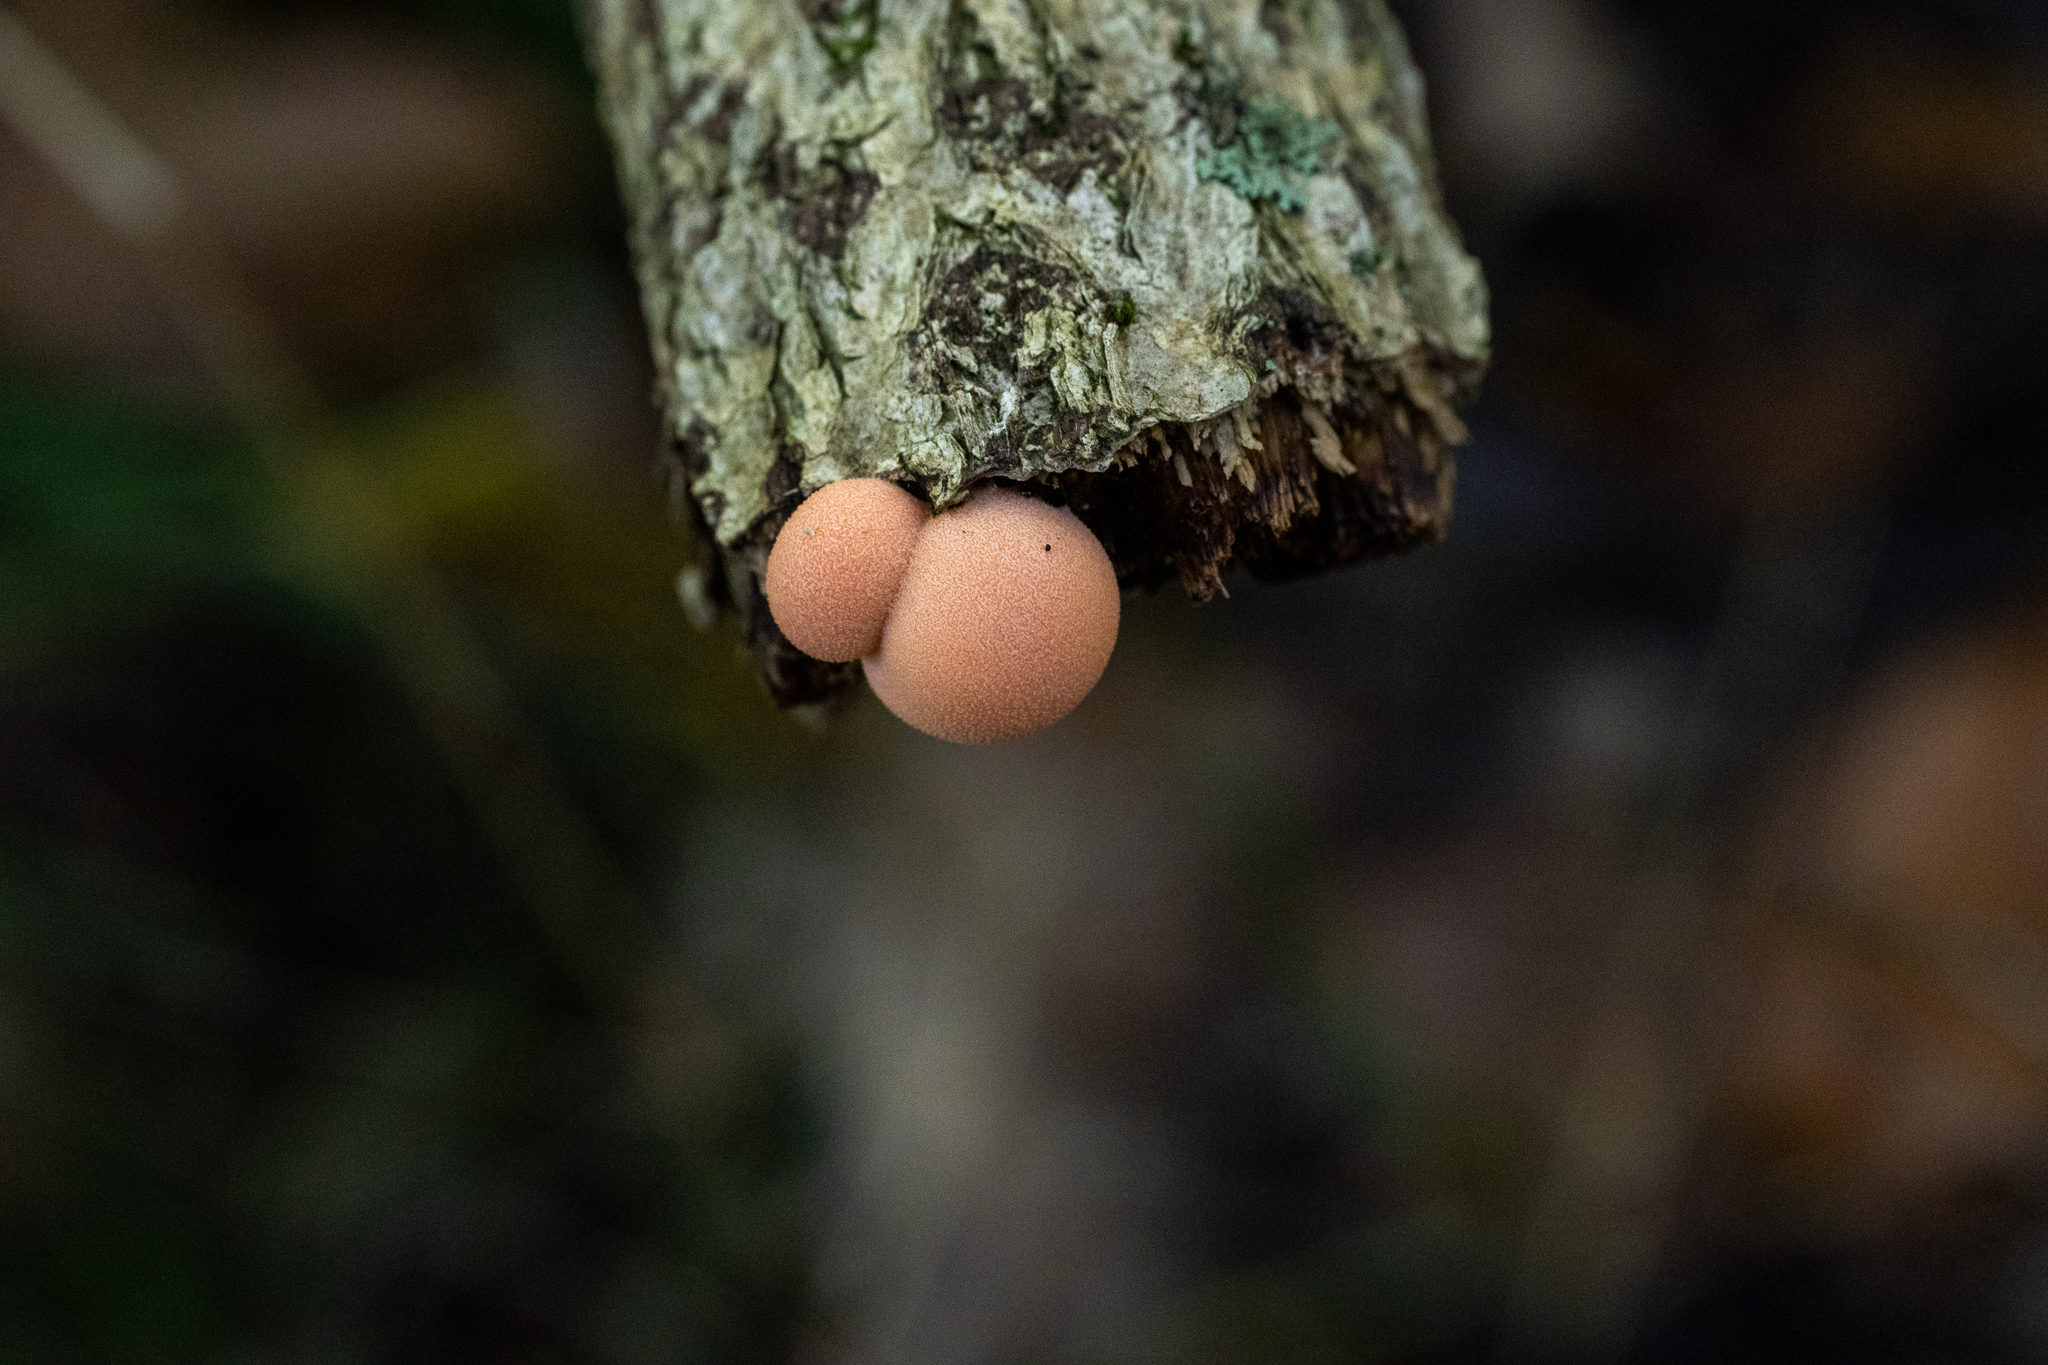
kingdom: Protozoa
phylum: Mycetozoa
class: Myxomycetes
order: Cribrariales
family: Tubiferaceae
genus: Lycogala
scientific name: Lycogala epidendrum
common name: Wolf's milk
